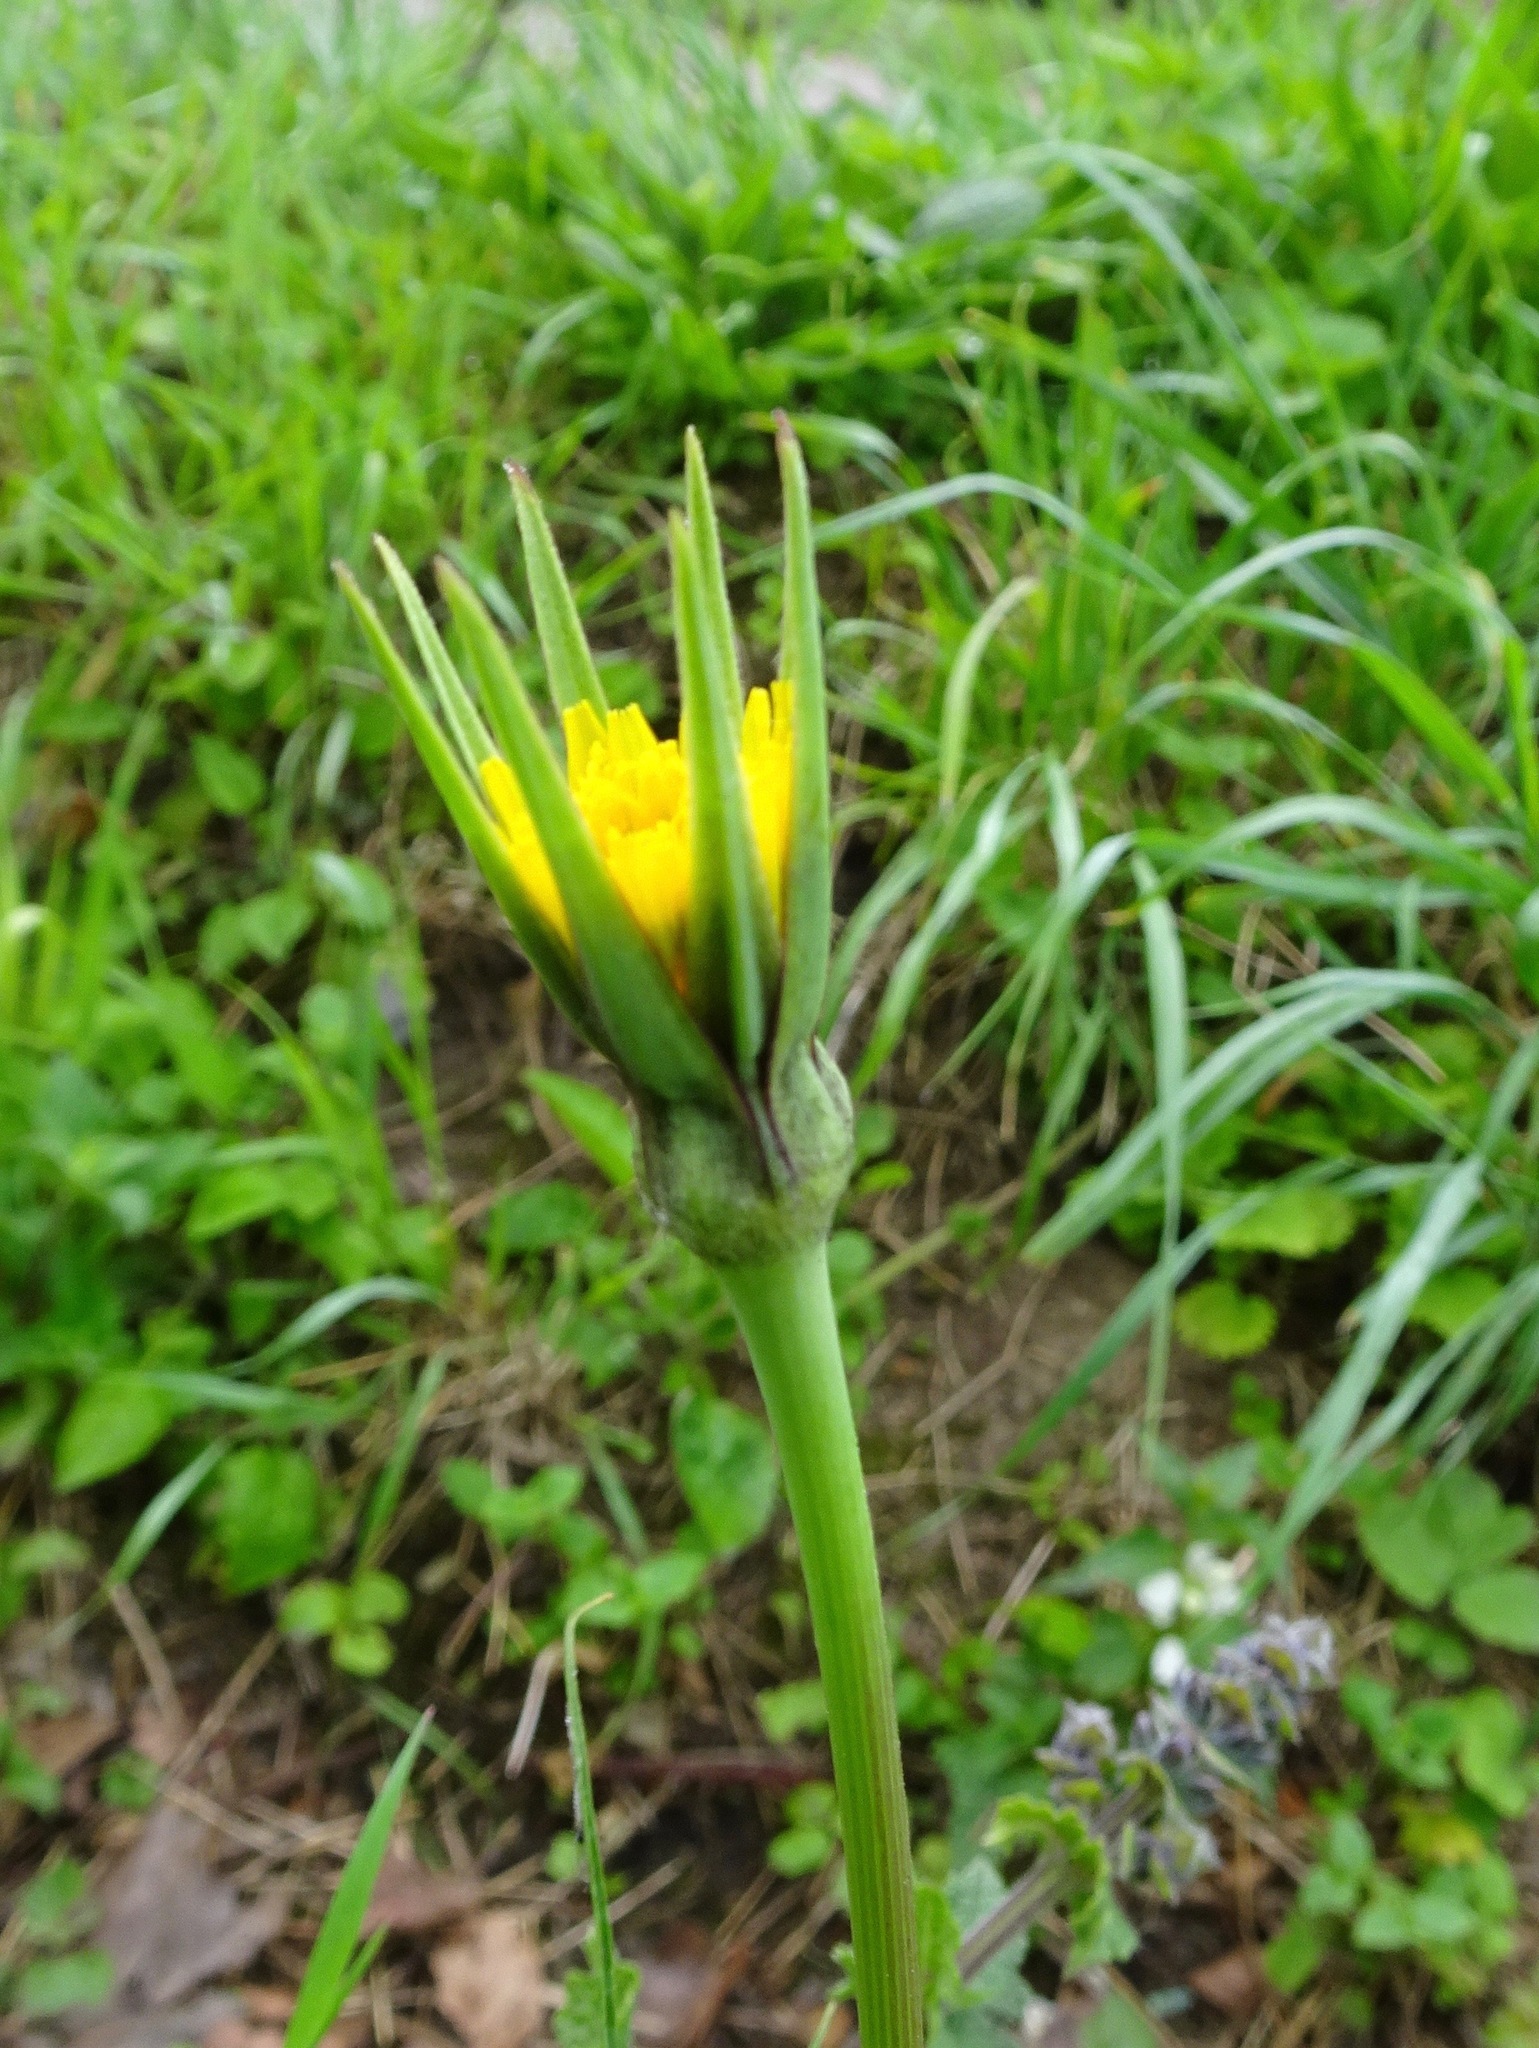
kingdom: Plantae
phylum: Tracheophyta
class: Magnoliopsida
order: Asterales
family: Asteraceae
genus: Tragopogon
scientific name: Tragopogon pratensis
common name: Goat's-beard
